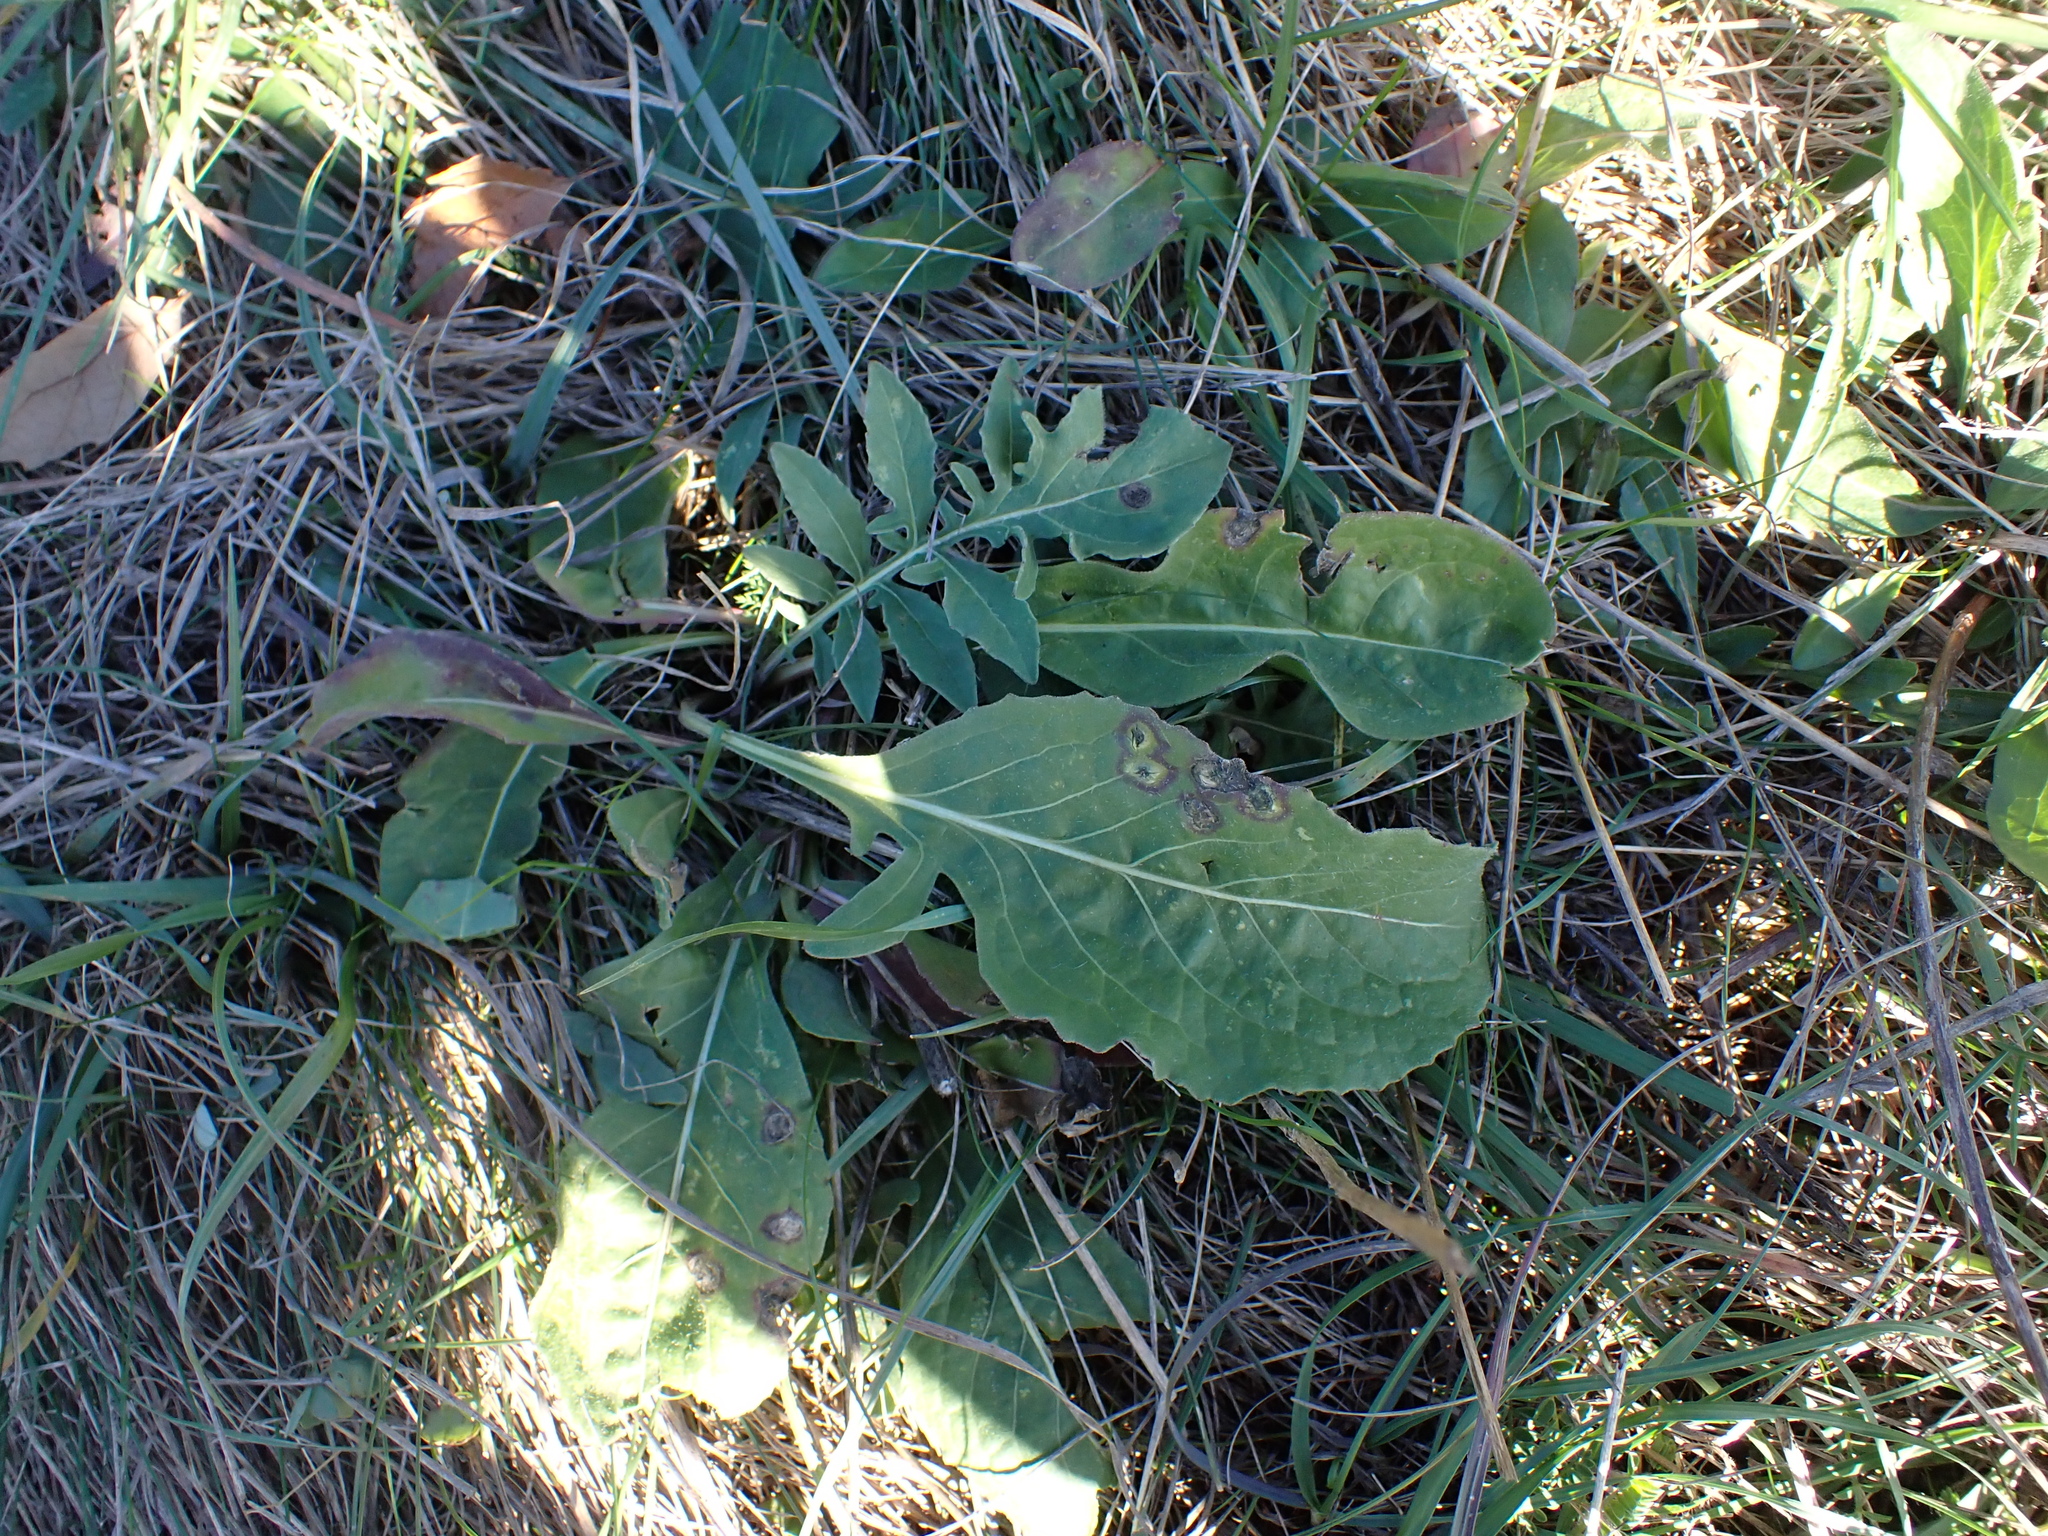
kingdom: Plantae
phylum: Tracheophyta
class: Magnoliopsida
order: Asterales
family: Asteraceae
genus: Centaurea
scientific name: Centaurea scabiosa
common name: Greater knapweed
